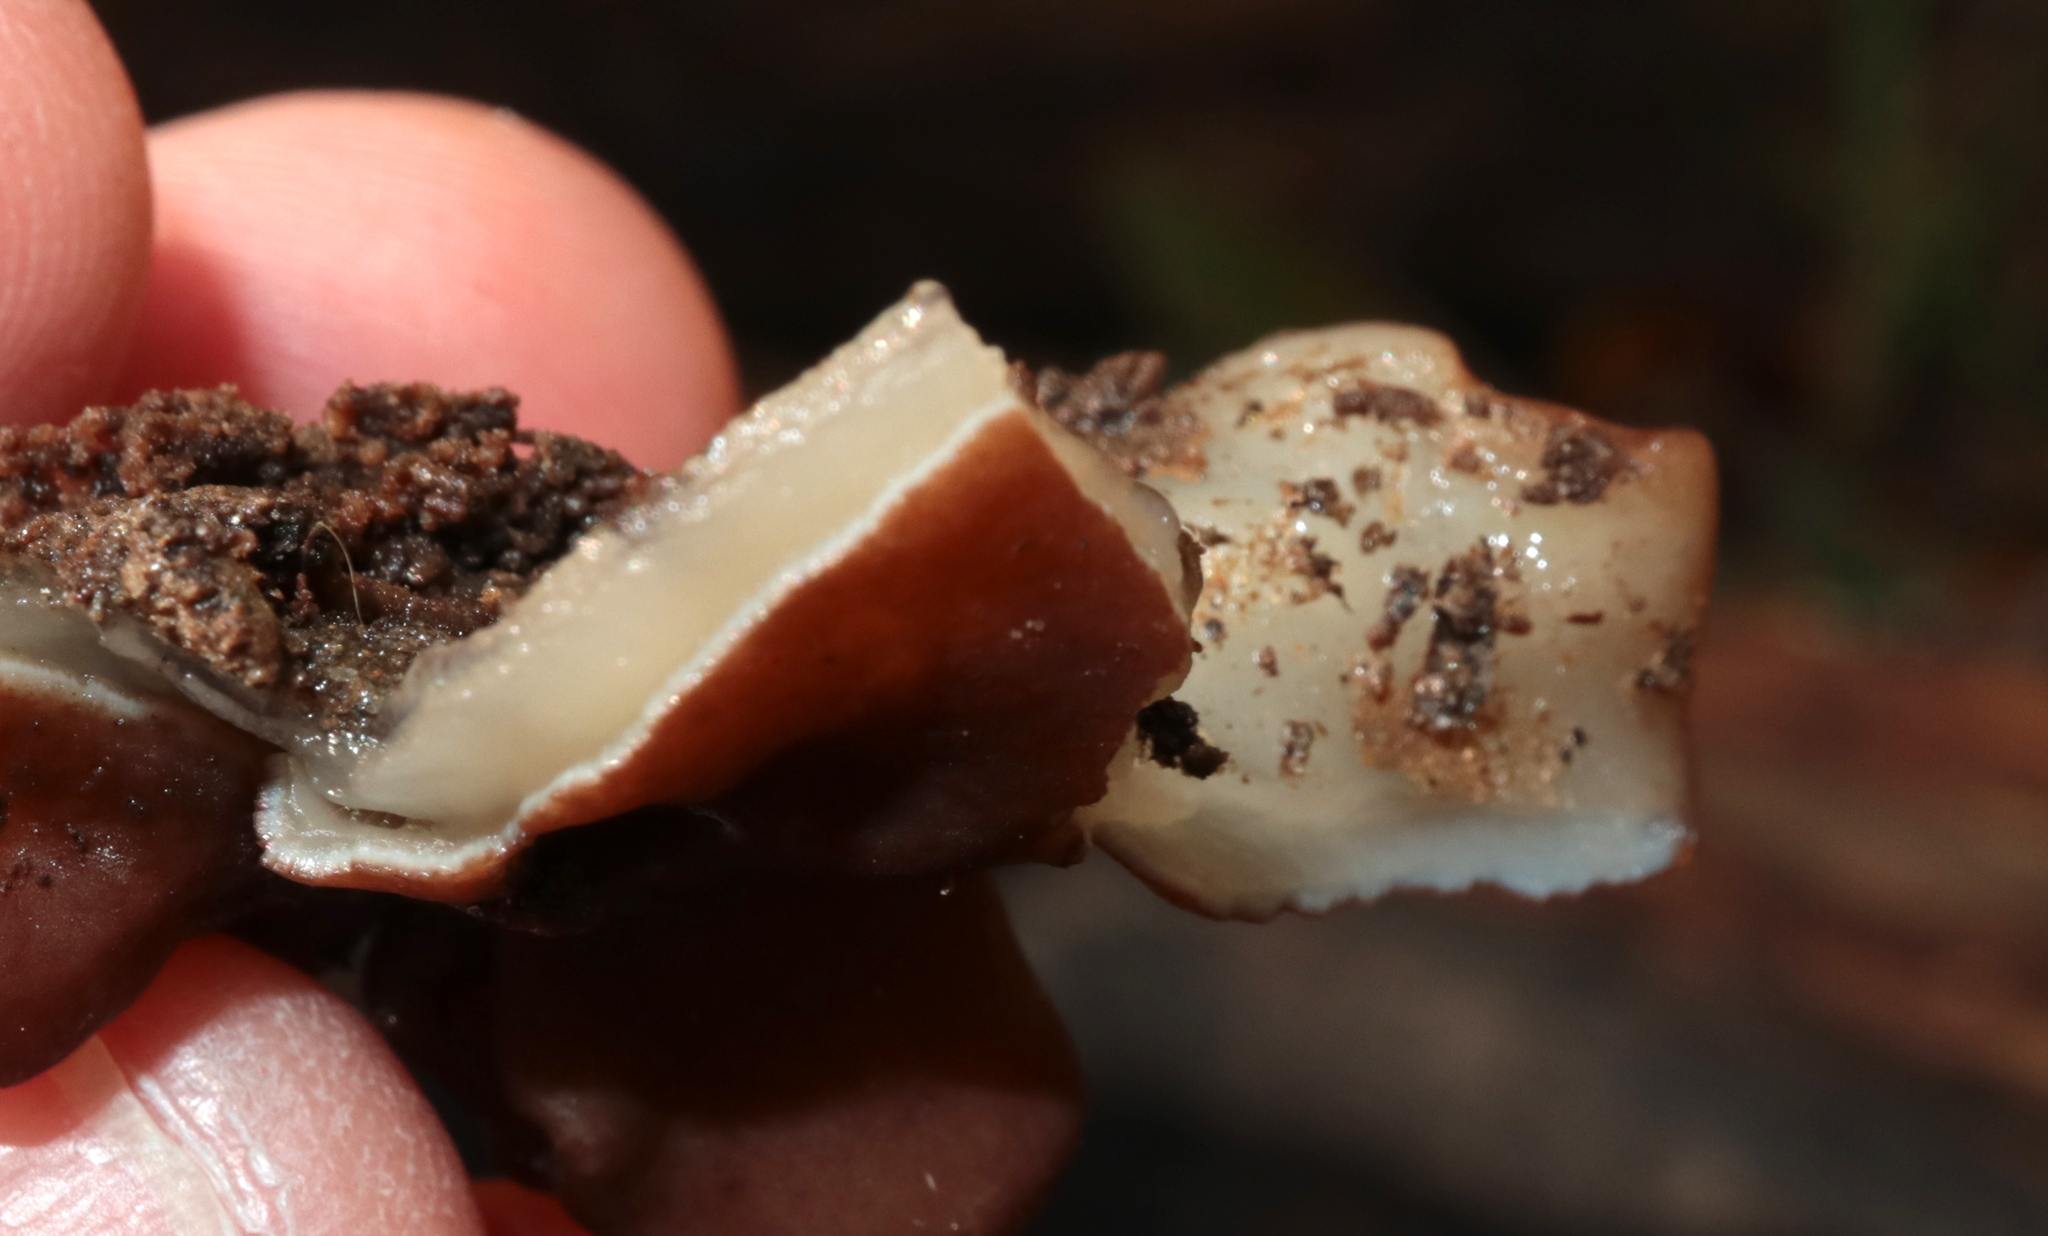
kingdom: Fungi
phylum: Ascomycota
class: Pezizomycetes
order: Pezizales
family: Pezizaceae
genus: Pachyella
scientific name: Pachyella clypeata
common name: Copper penny fungus
